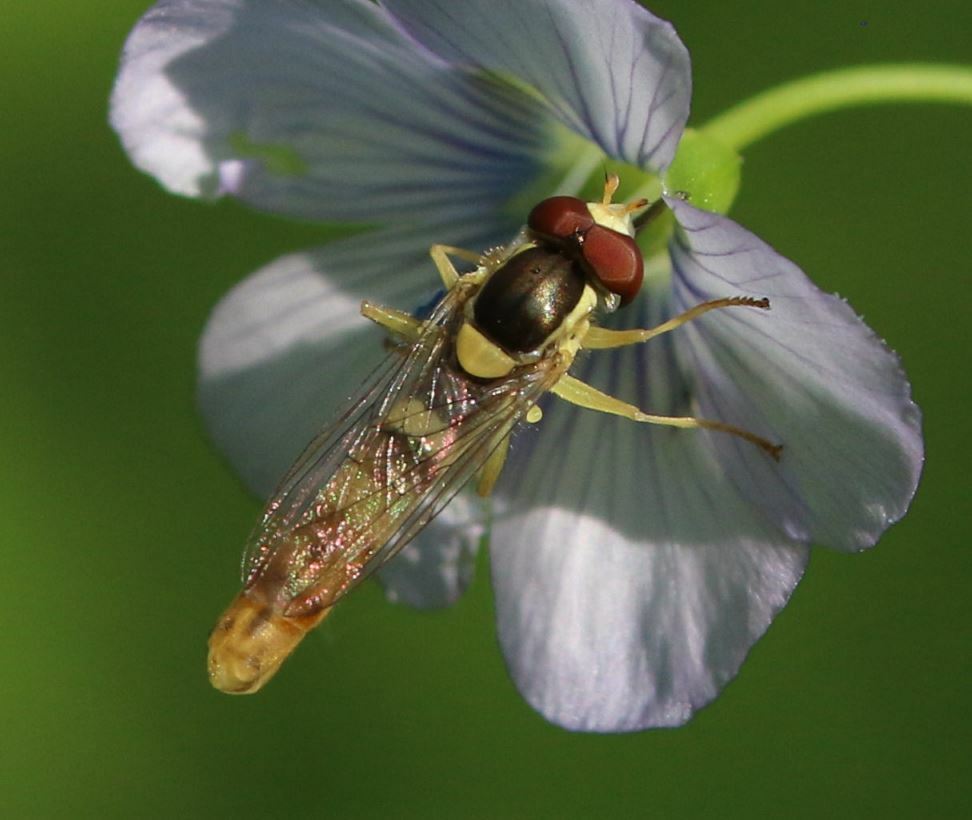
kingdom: Animalia
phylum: Arthropoda
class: Insecta
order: Diptera
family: Syrphidae
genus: Sphaerophoria
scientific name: Sphaerophoria scripta
